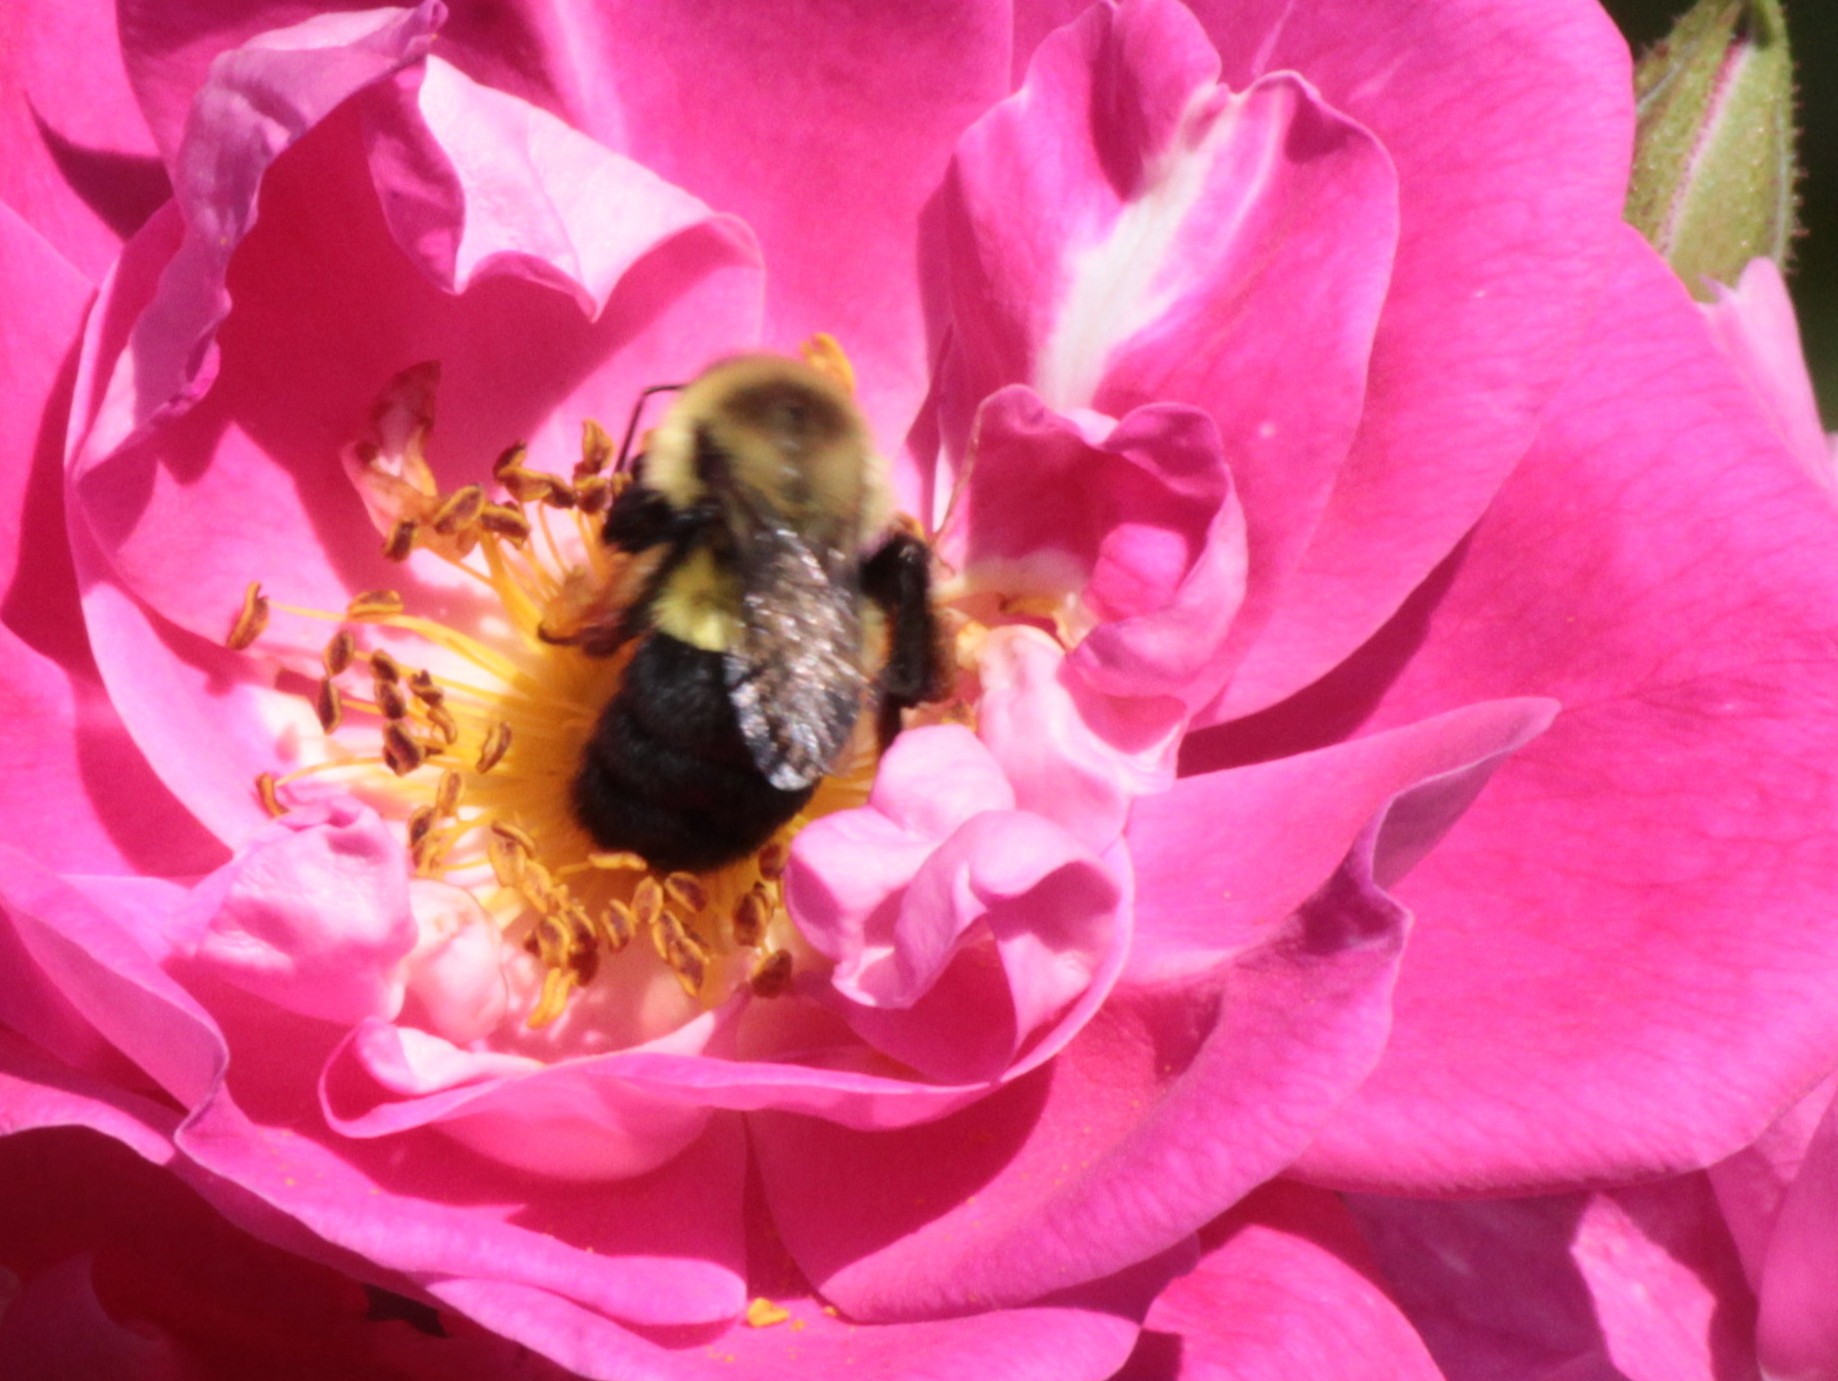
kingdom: Animalia
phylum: Arthropoda
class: Insecta
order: Hymenoptera
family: Apidae
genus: Bombus
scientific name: Bombus impatiens
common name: Common eastern bumble bee
